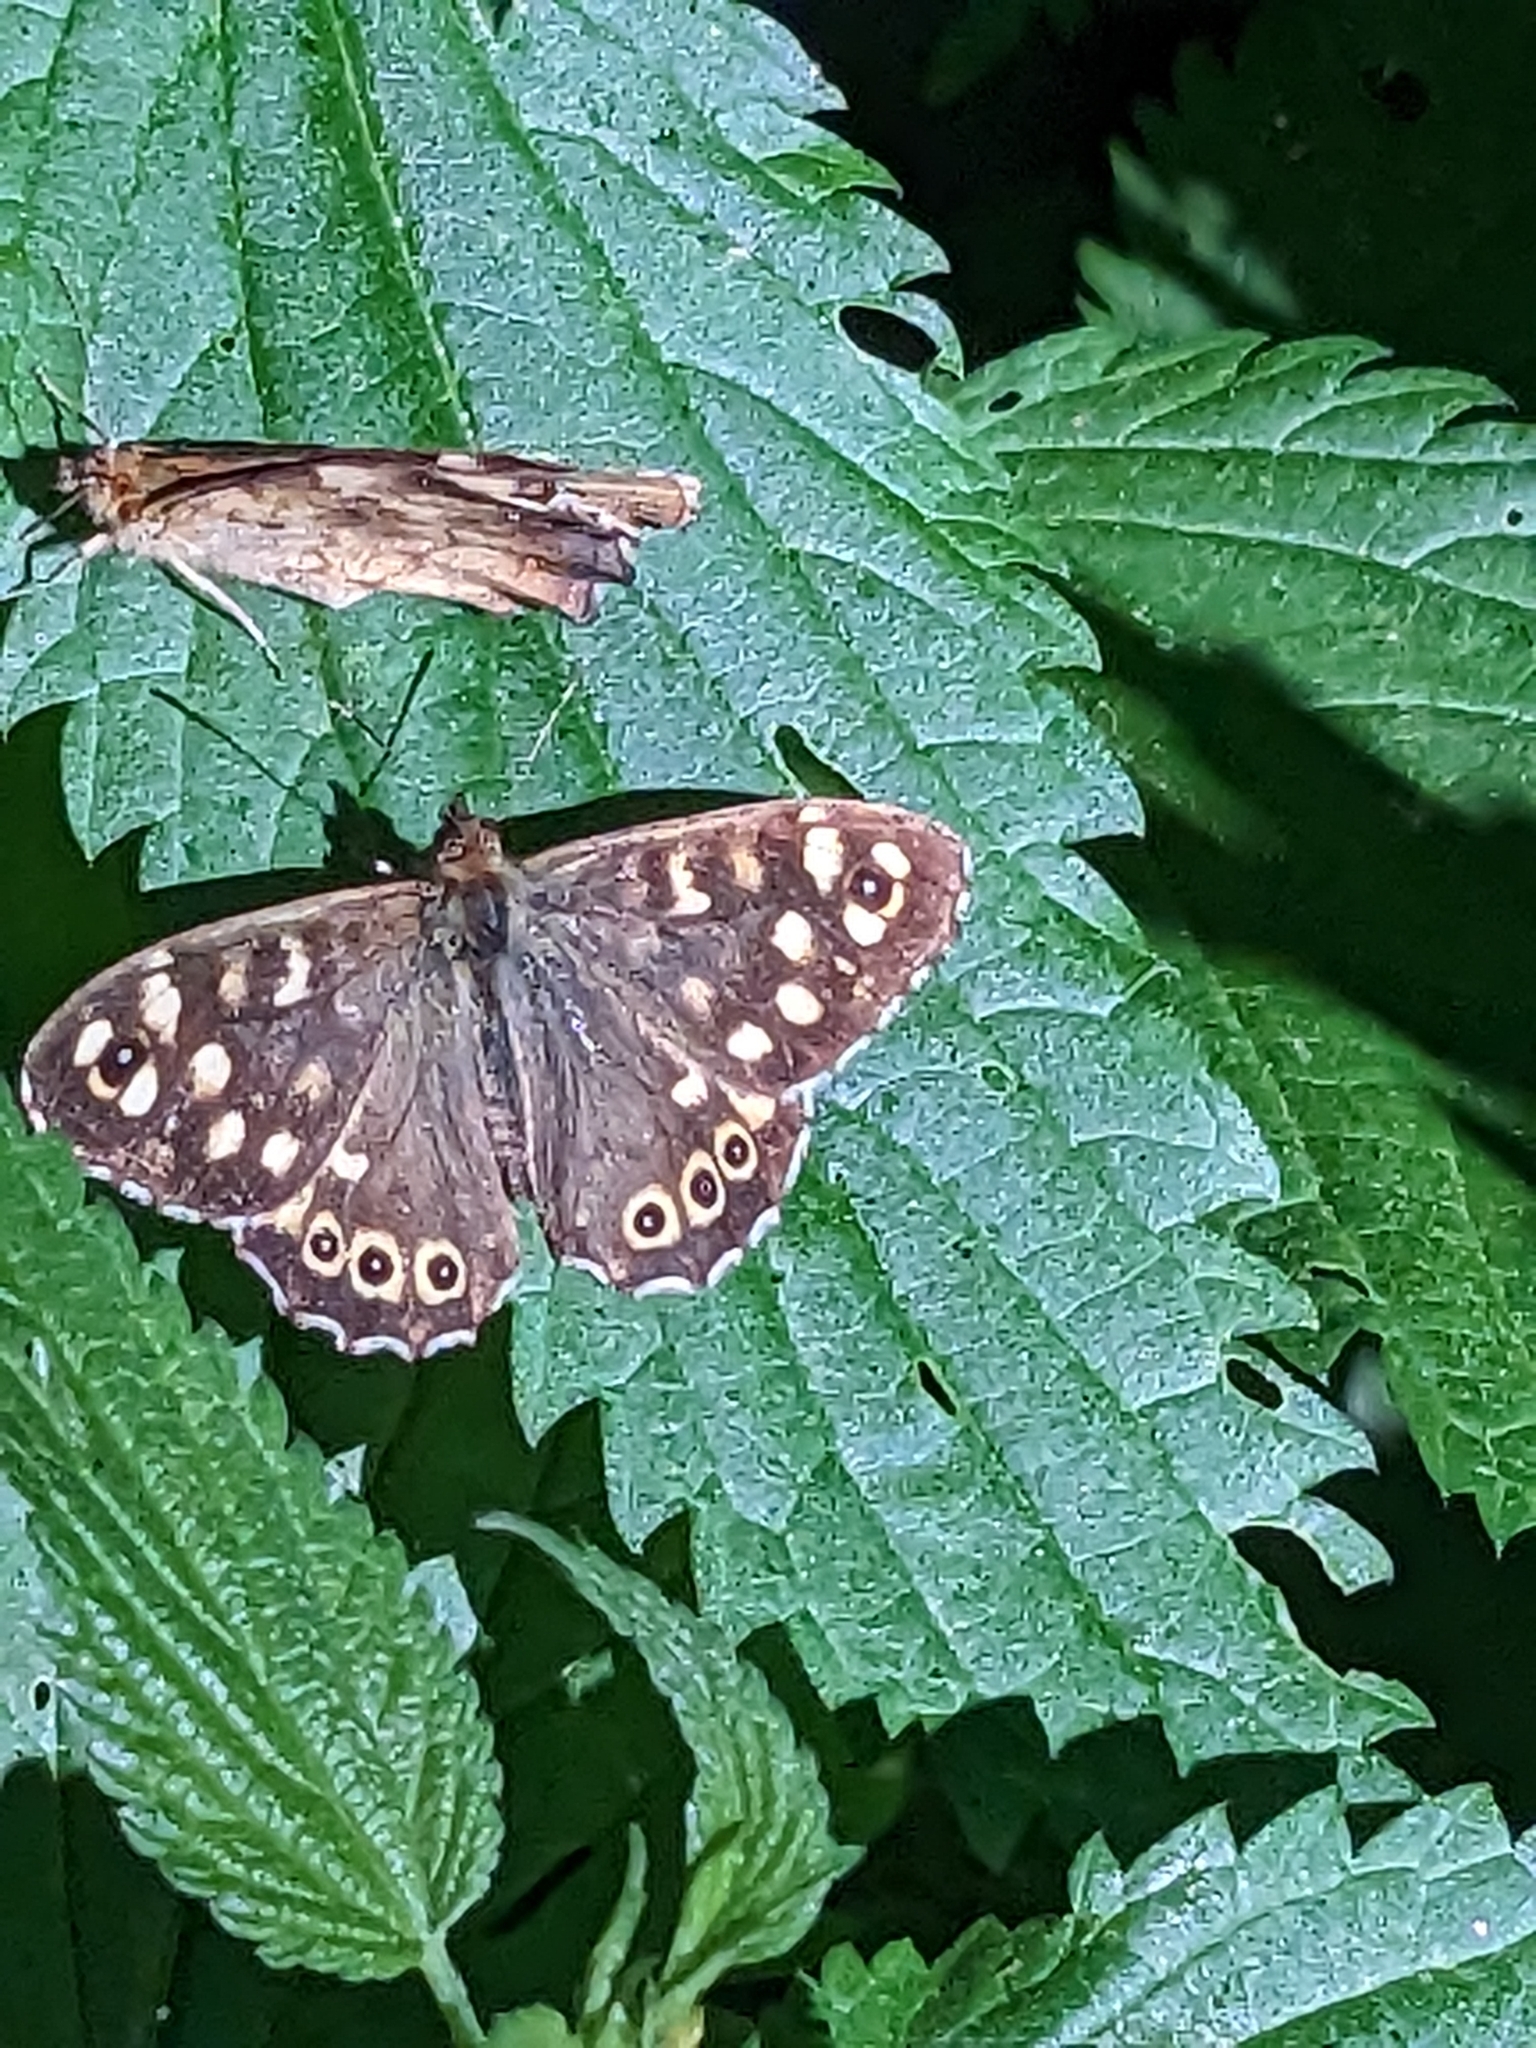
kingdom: Animalia
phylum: Arthropoda
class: Insecta
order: Lepidoptera
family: Nymphalidae
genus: Pararge
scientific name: Pararge aegeria
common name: Speckled wood
